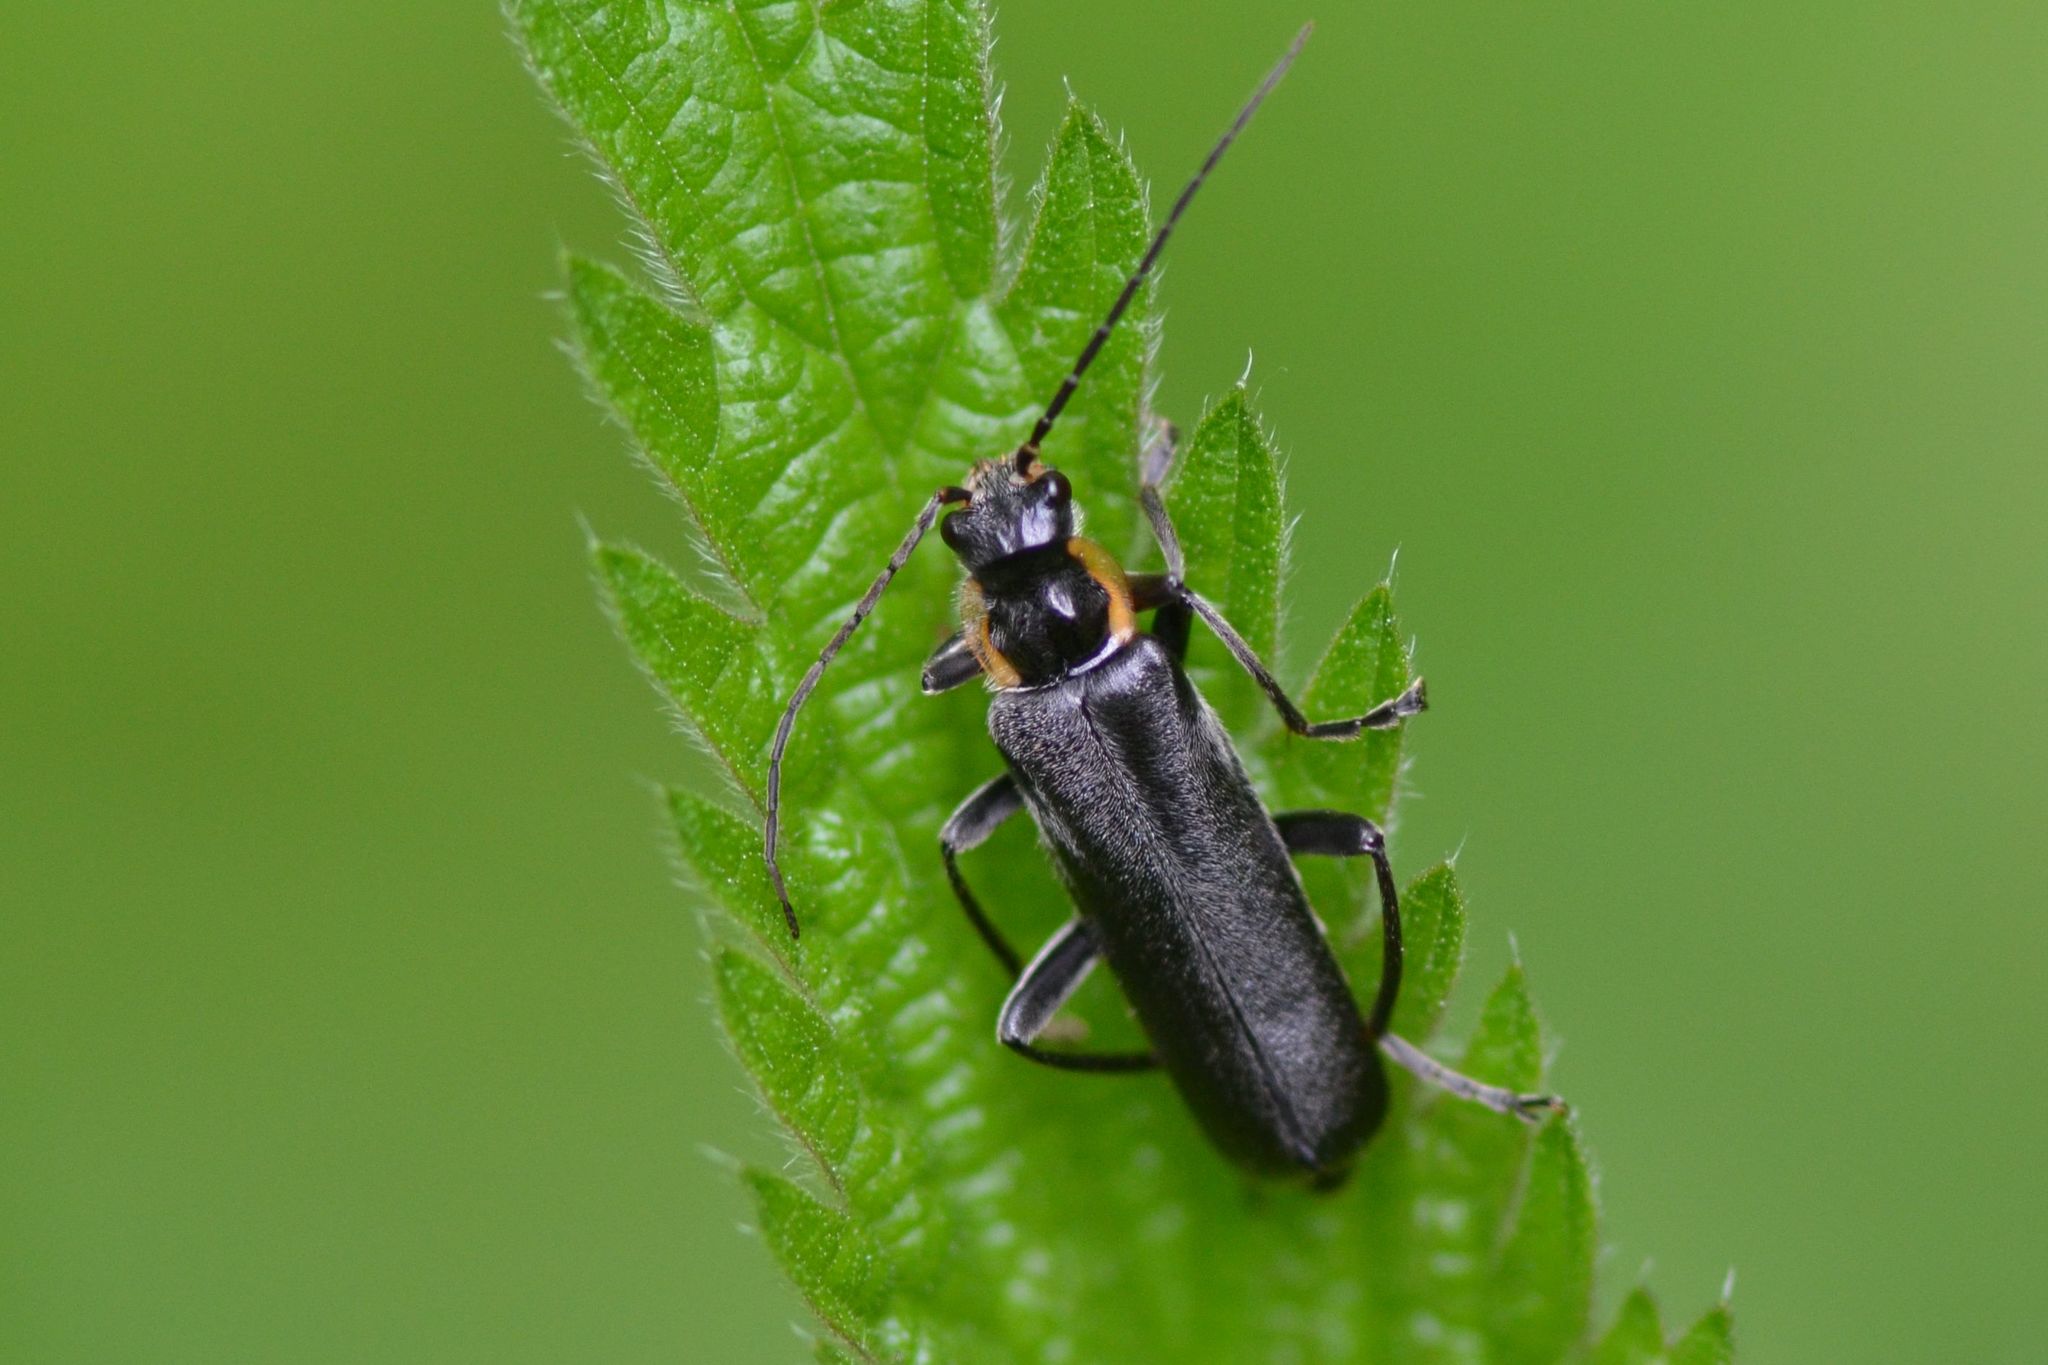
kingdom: Animalia
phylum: Arthropoda
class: Insecta
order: Coleoptera
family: Cantharidae
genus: Cantharis
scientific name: Cantharis obscura
